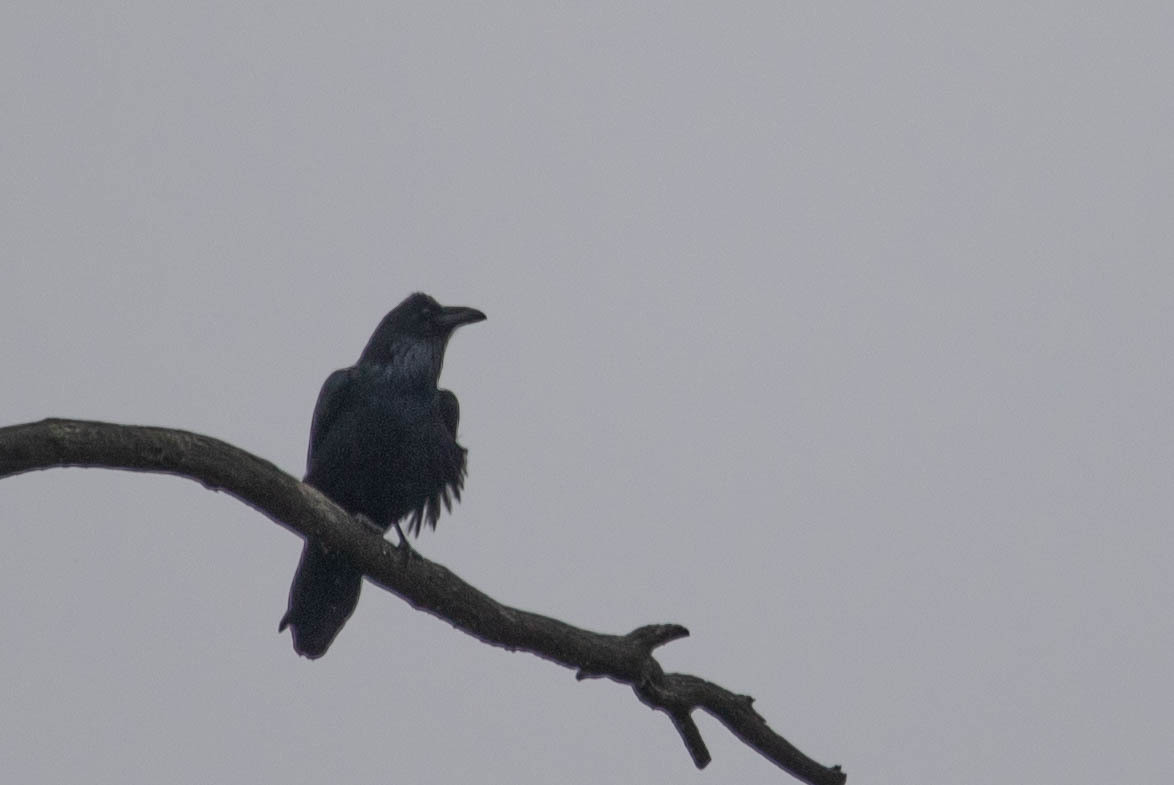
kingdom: Animalia
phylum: Chordata
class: Aves
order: Passeriformes
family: Corvidae
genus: Corvus
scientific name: Corvus corax
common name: Common raven
